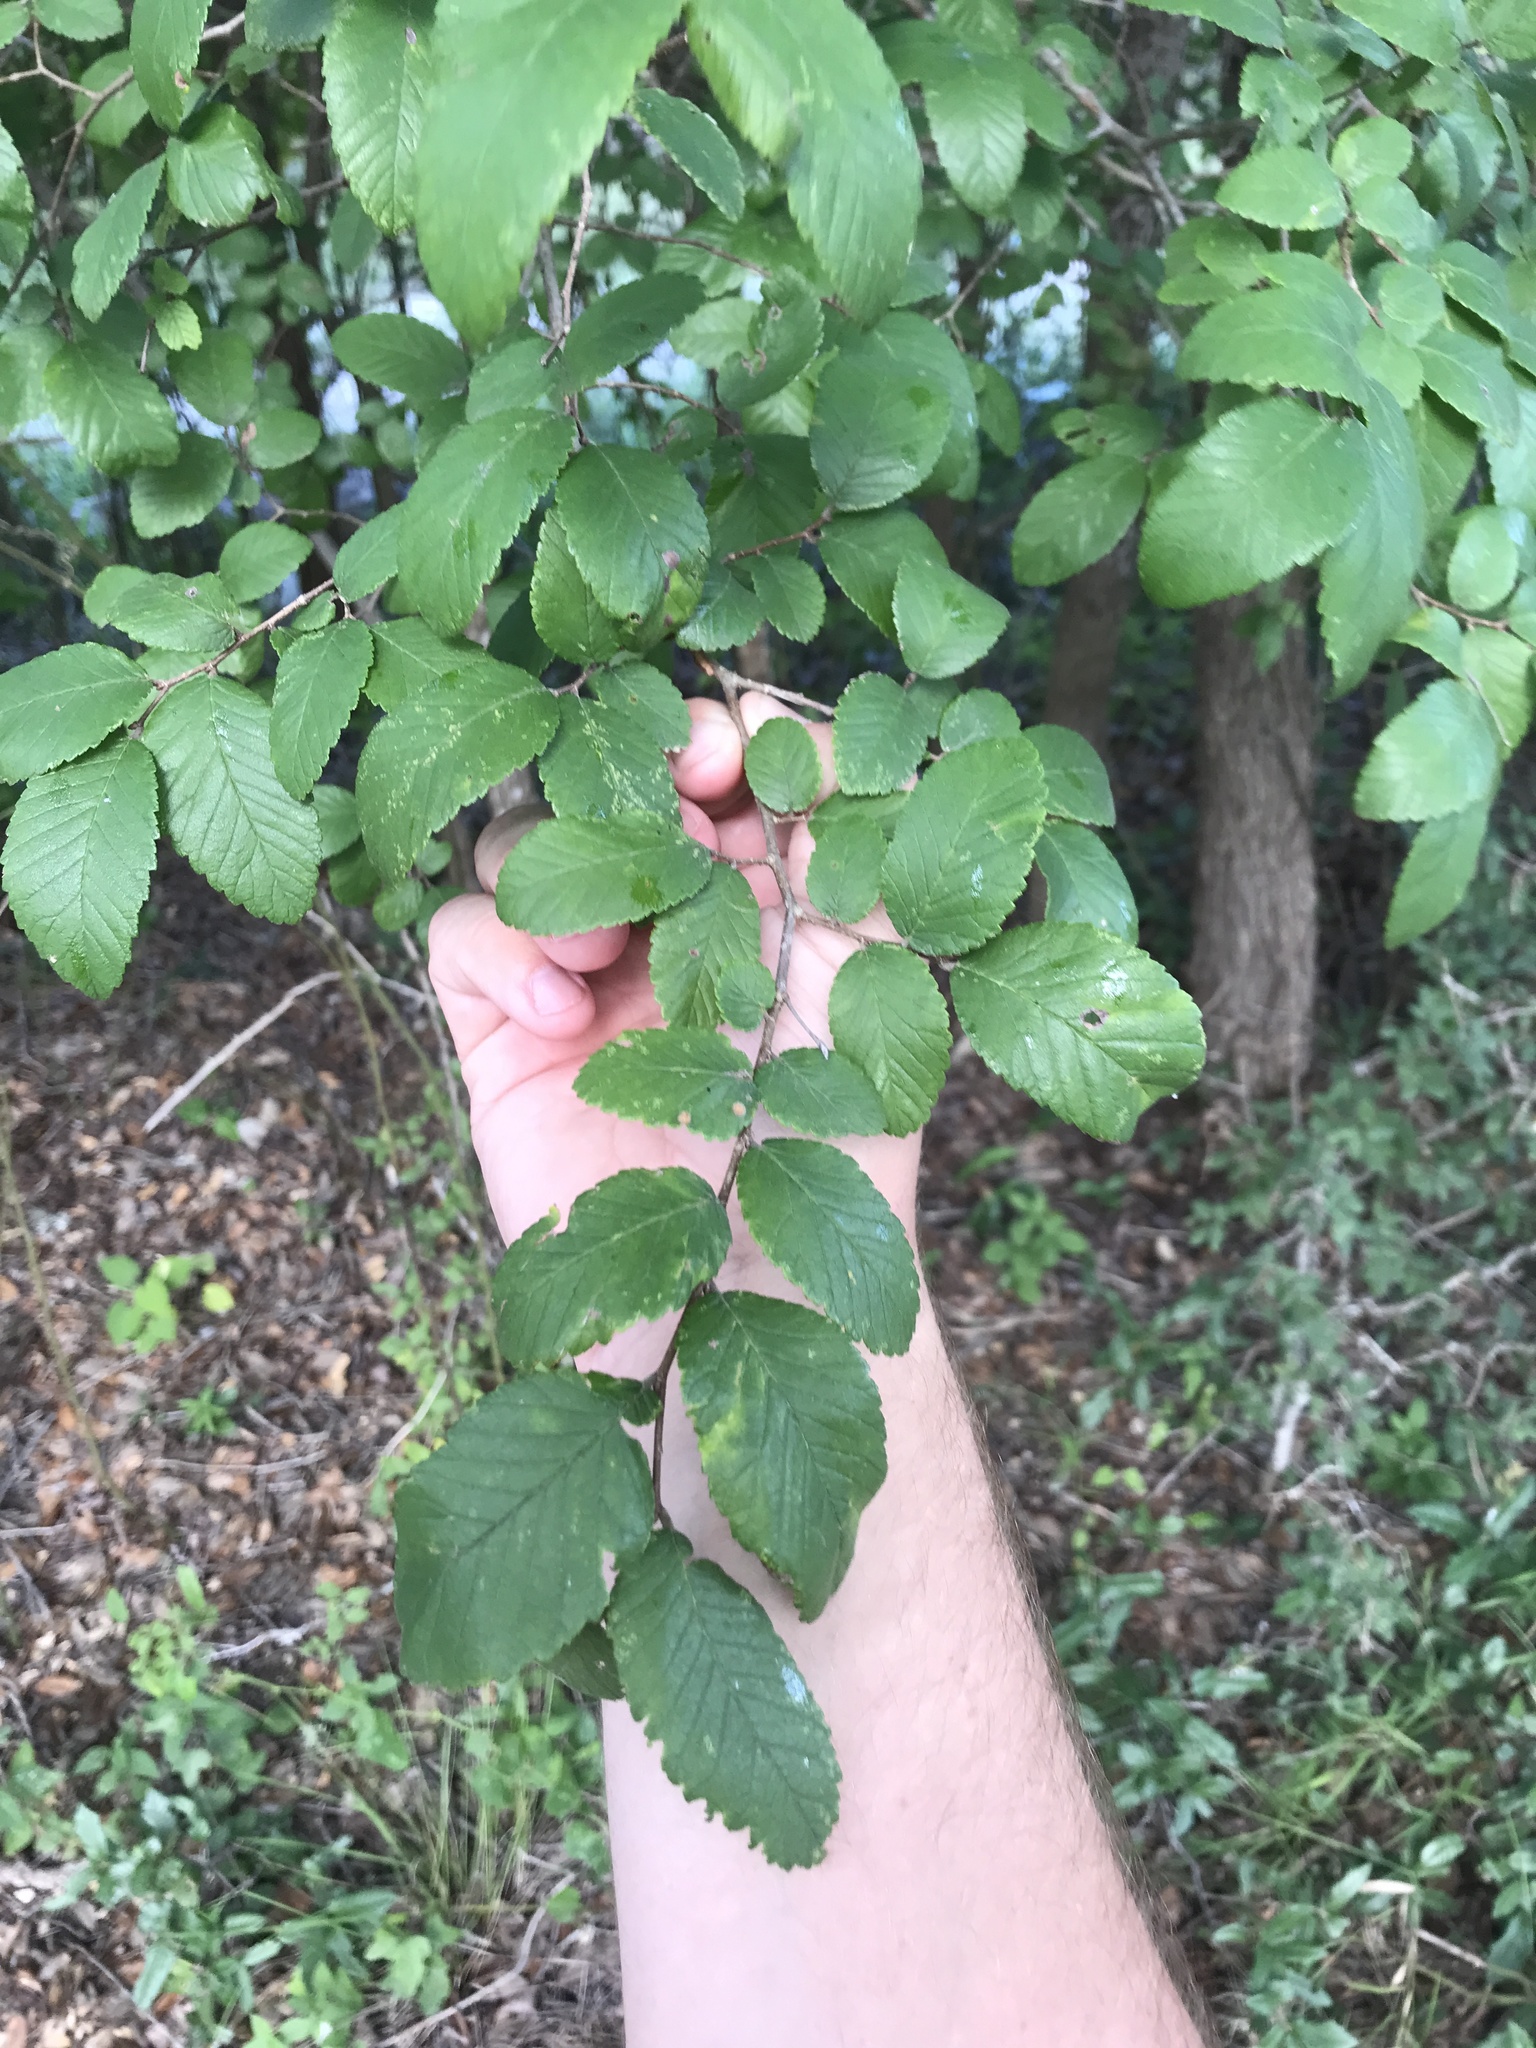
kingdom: Plantae
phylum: Tracheophyta
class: Magnoliopsida
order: Rosales
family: Ulmaceae
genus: Ulmus
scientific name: Ulmus crassifolia
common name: Basket elm
